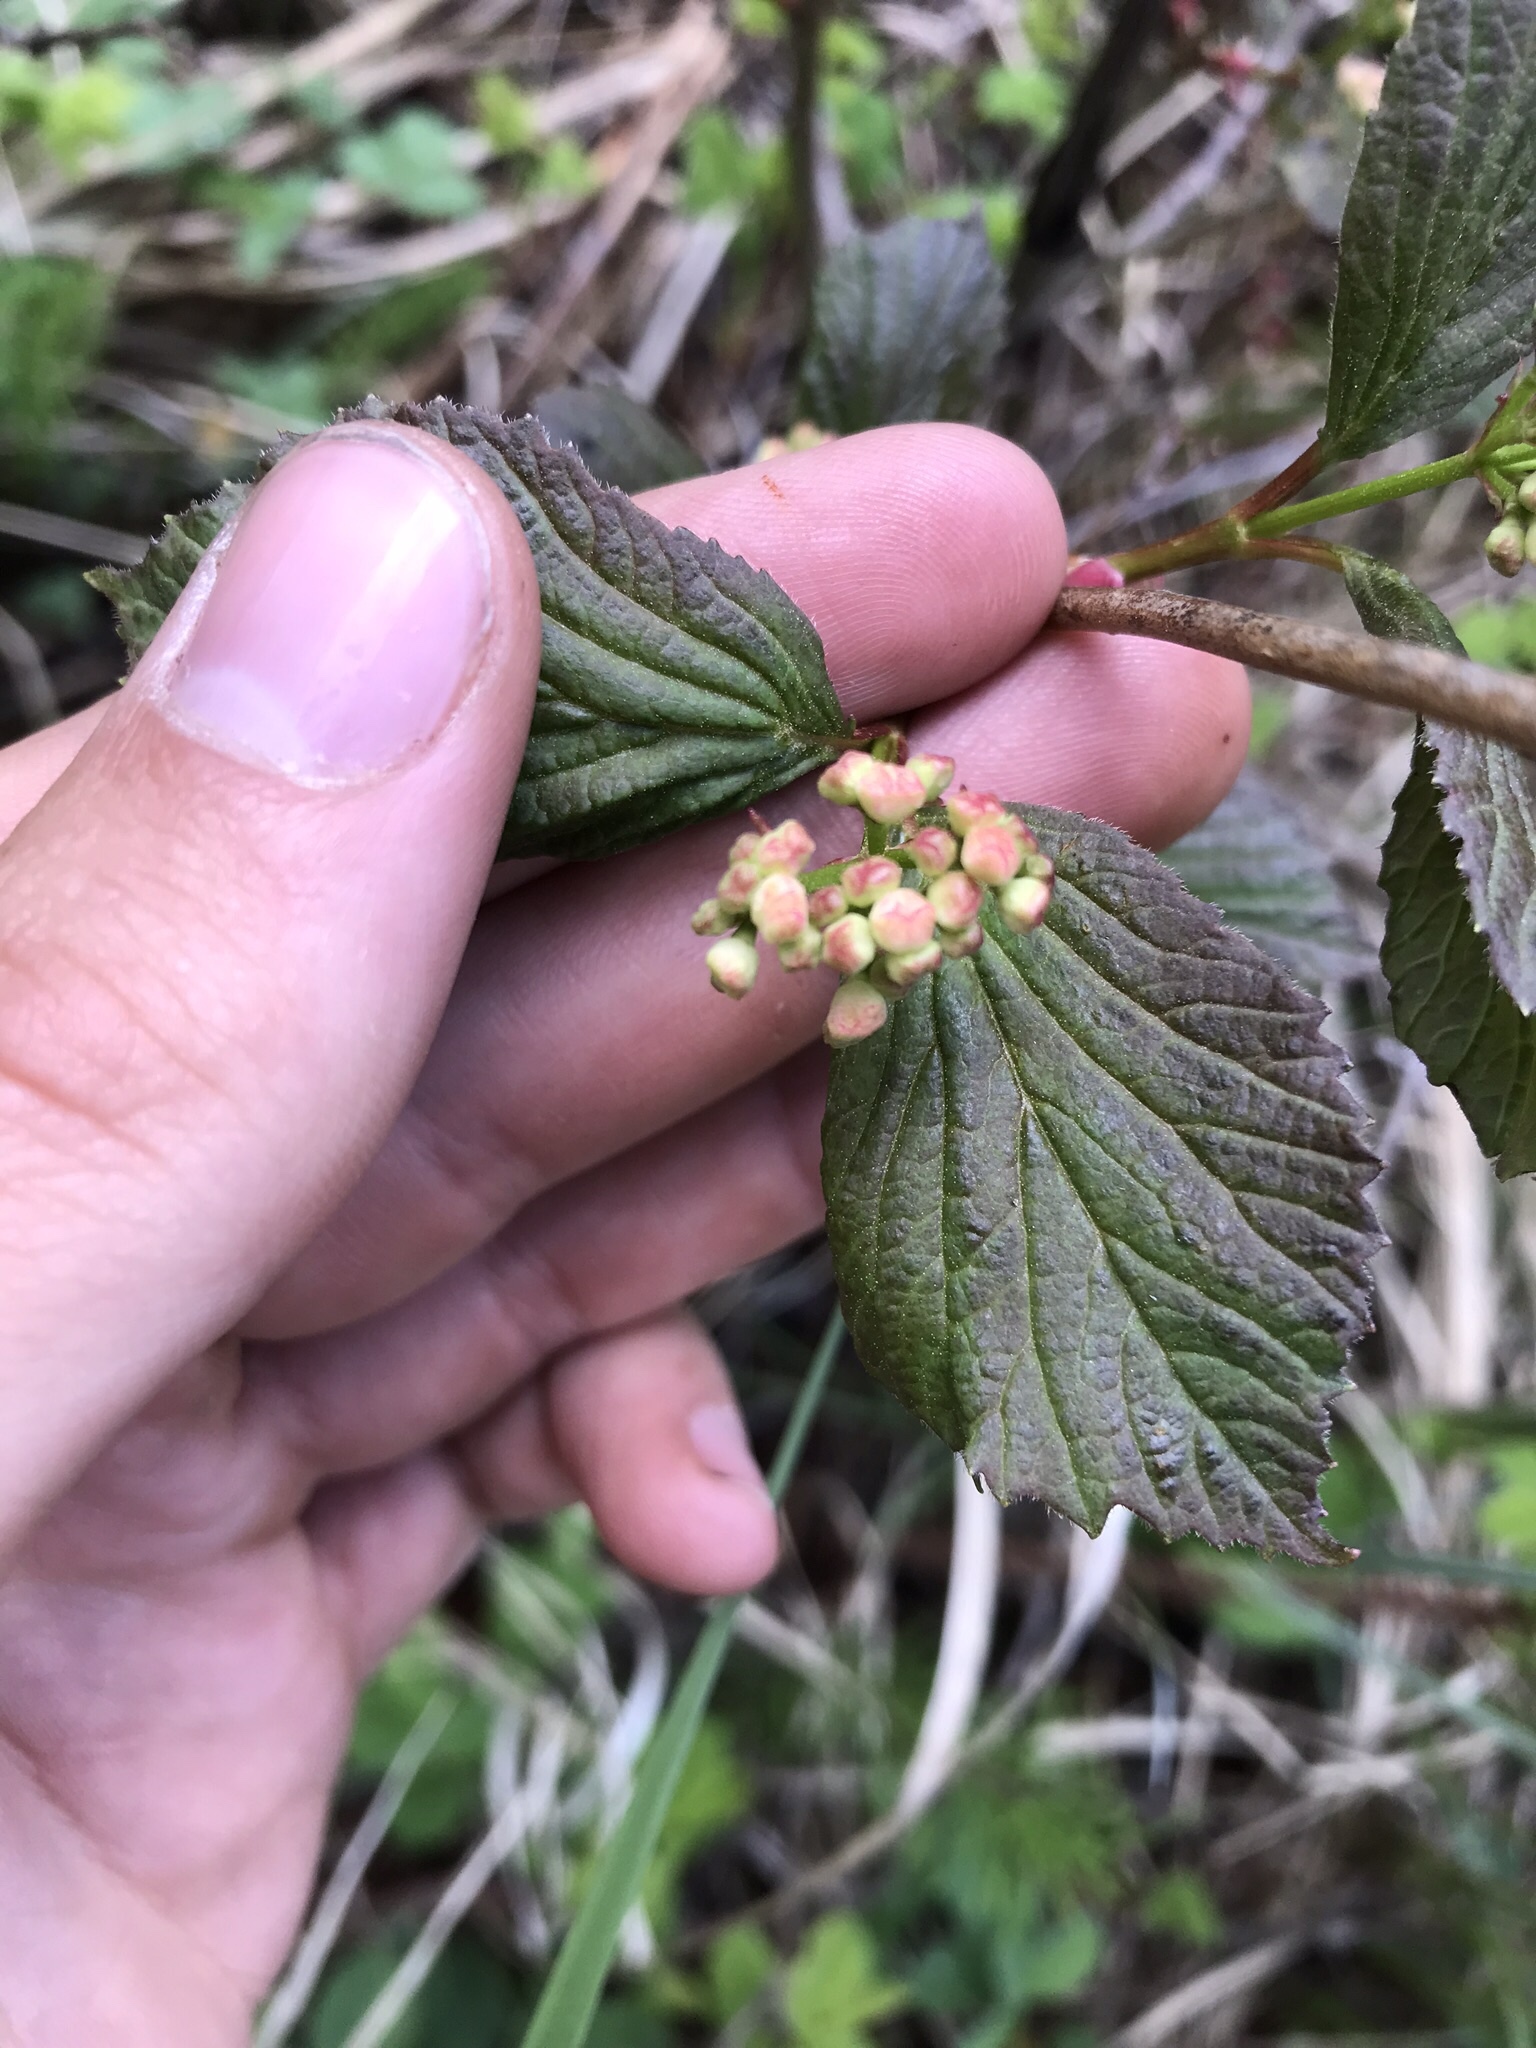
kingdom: Plantae
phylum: Tracheophyta
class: Magnoliopsida
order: Dipsacales
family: Viburnaceae
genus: Viburnum
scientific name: Viburnum edule
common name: Mooseberry
